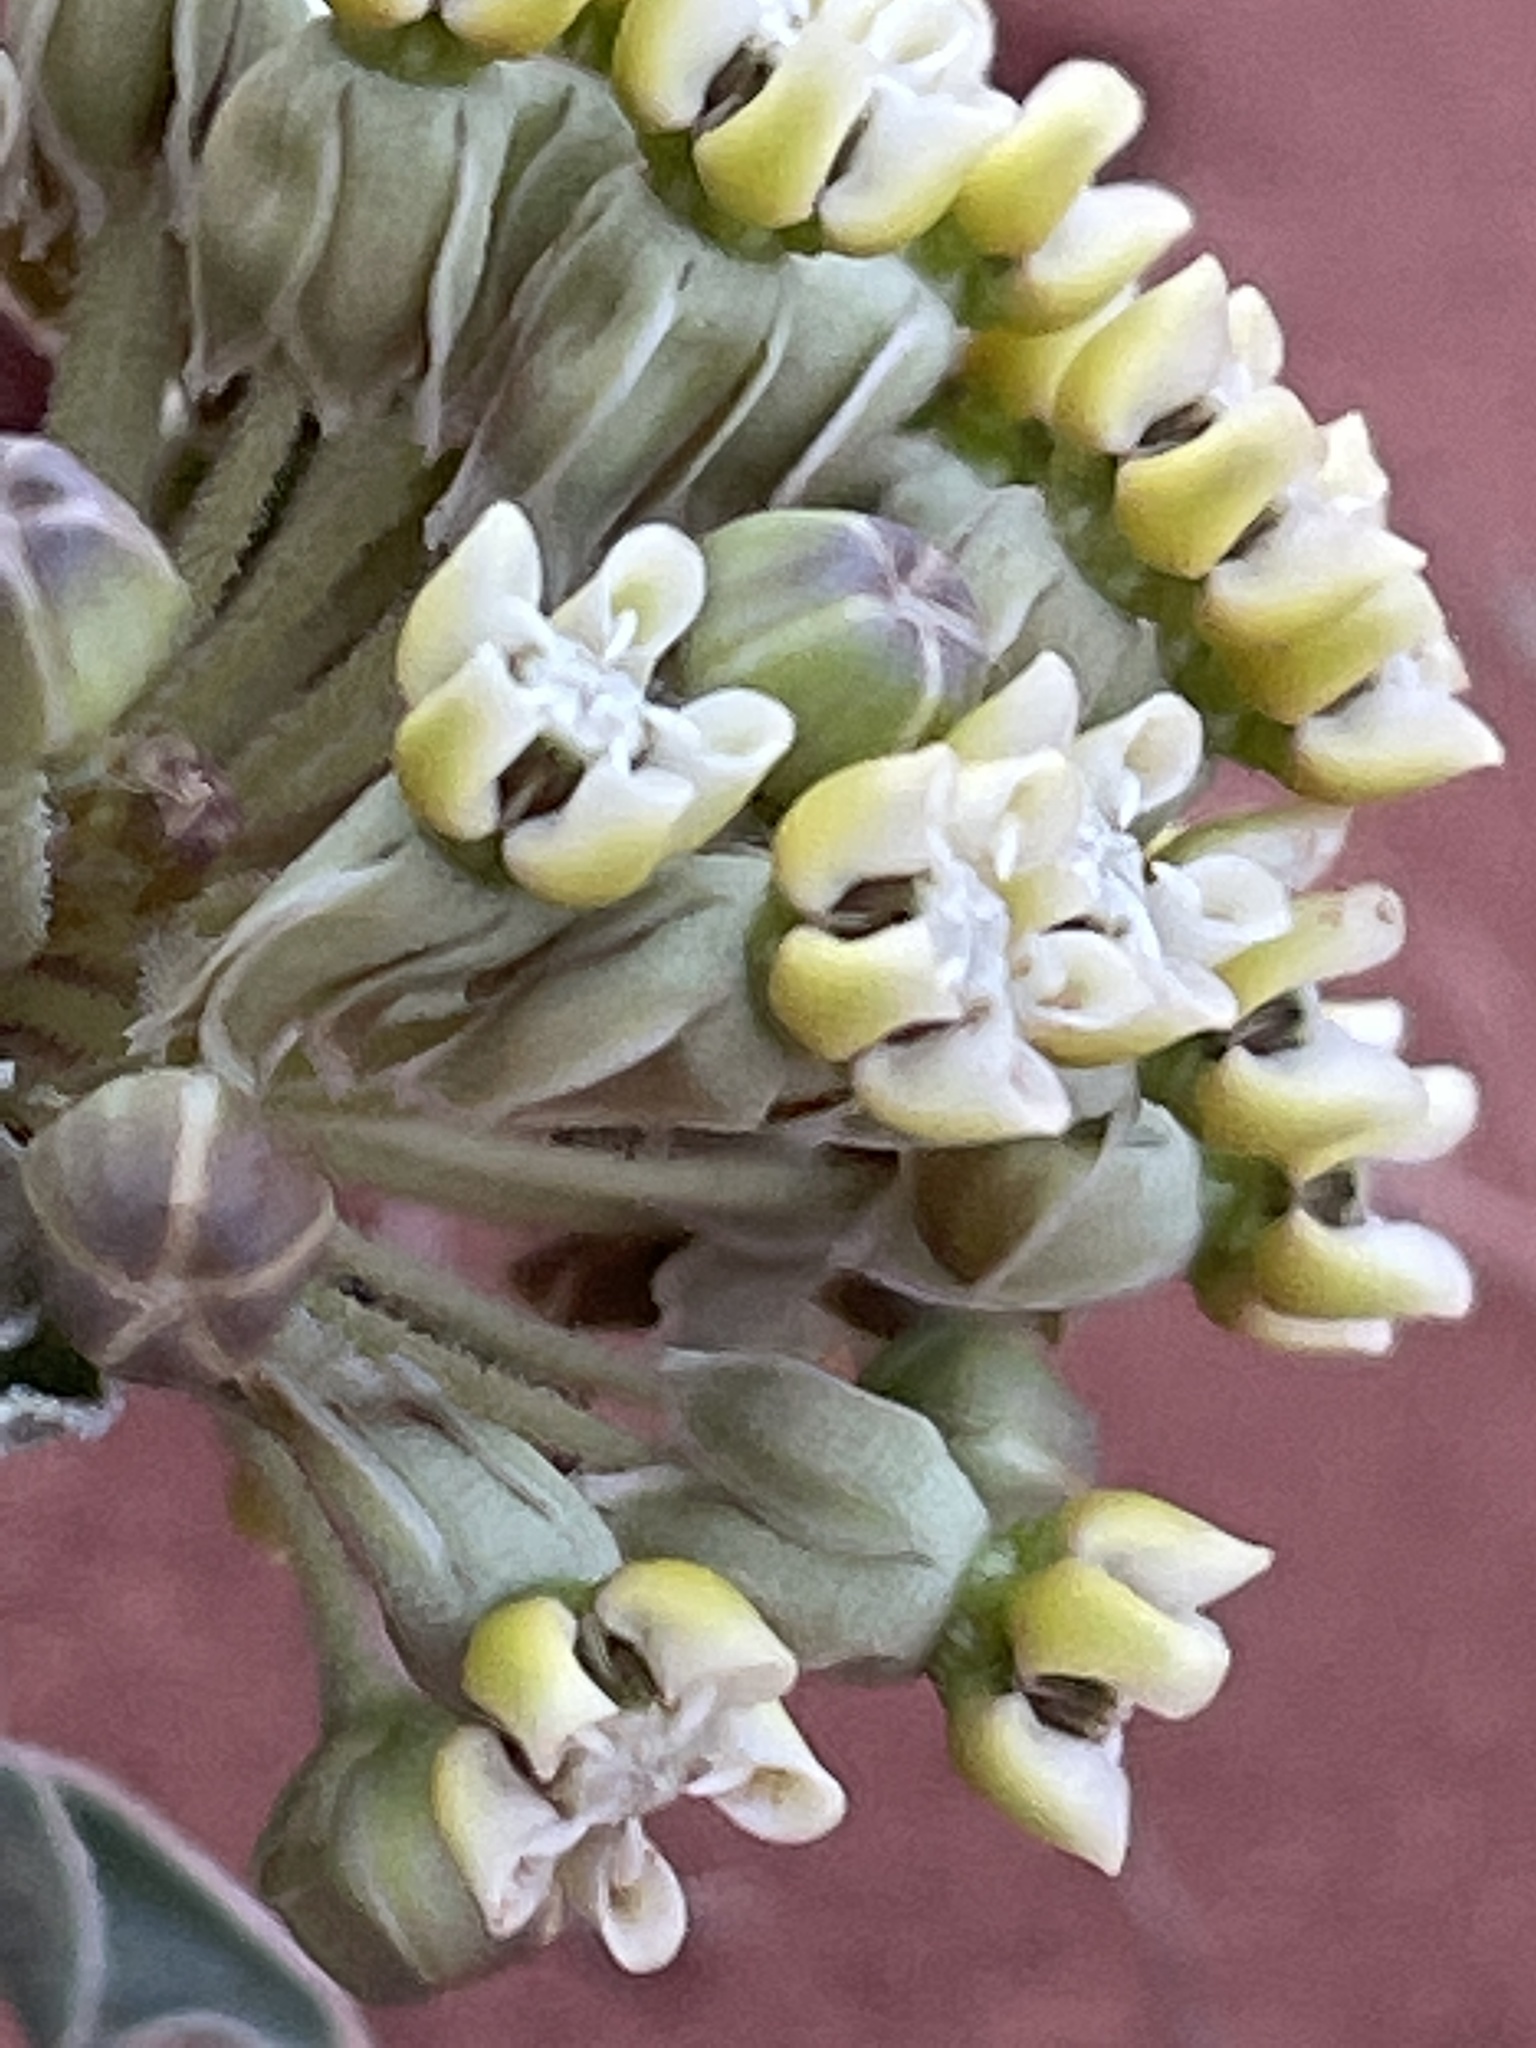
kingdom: Plantae
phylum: Tracheophyta
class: Magnoliopsida
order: Gentianales
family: Apocynaceae
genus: Asclepias
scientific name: Asclepias involucrata
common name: Dwarf milkweed
